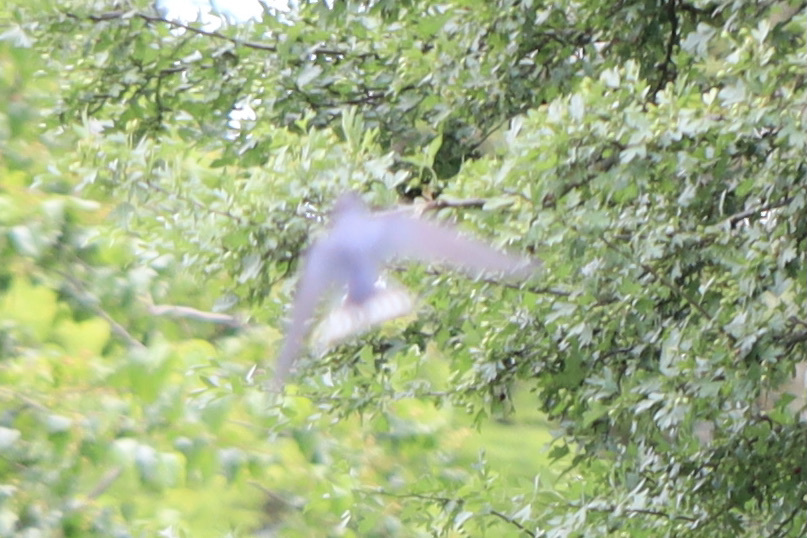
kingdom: Animalia
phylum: Chordata
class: Aves
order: Passeriformes
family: Hirundinidae
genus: Hirundo
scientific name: Hirundo rustica
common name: Barn swallow
